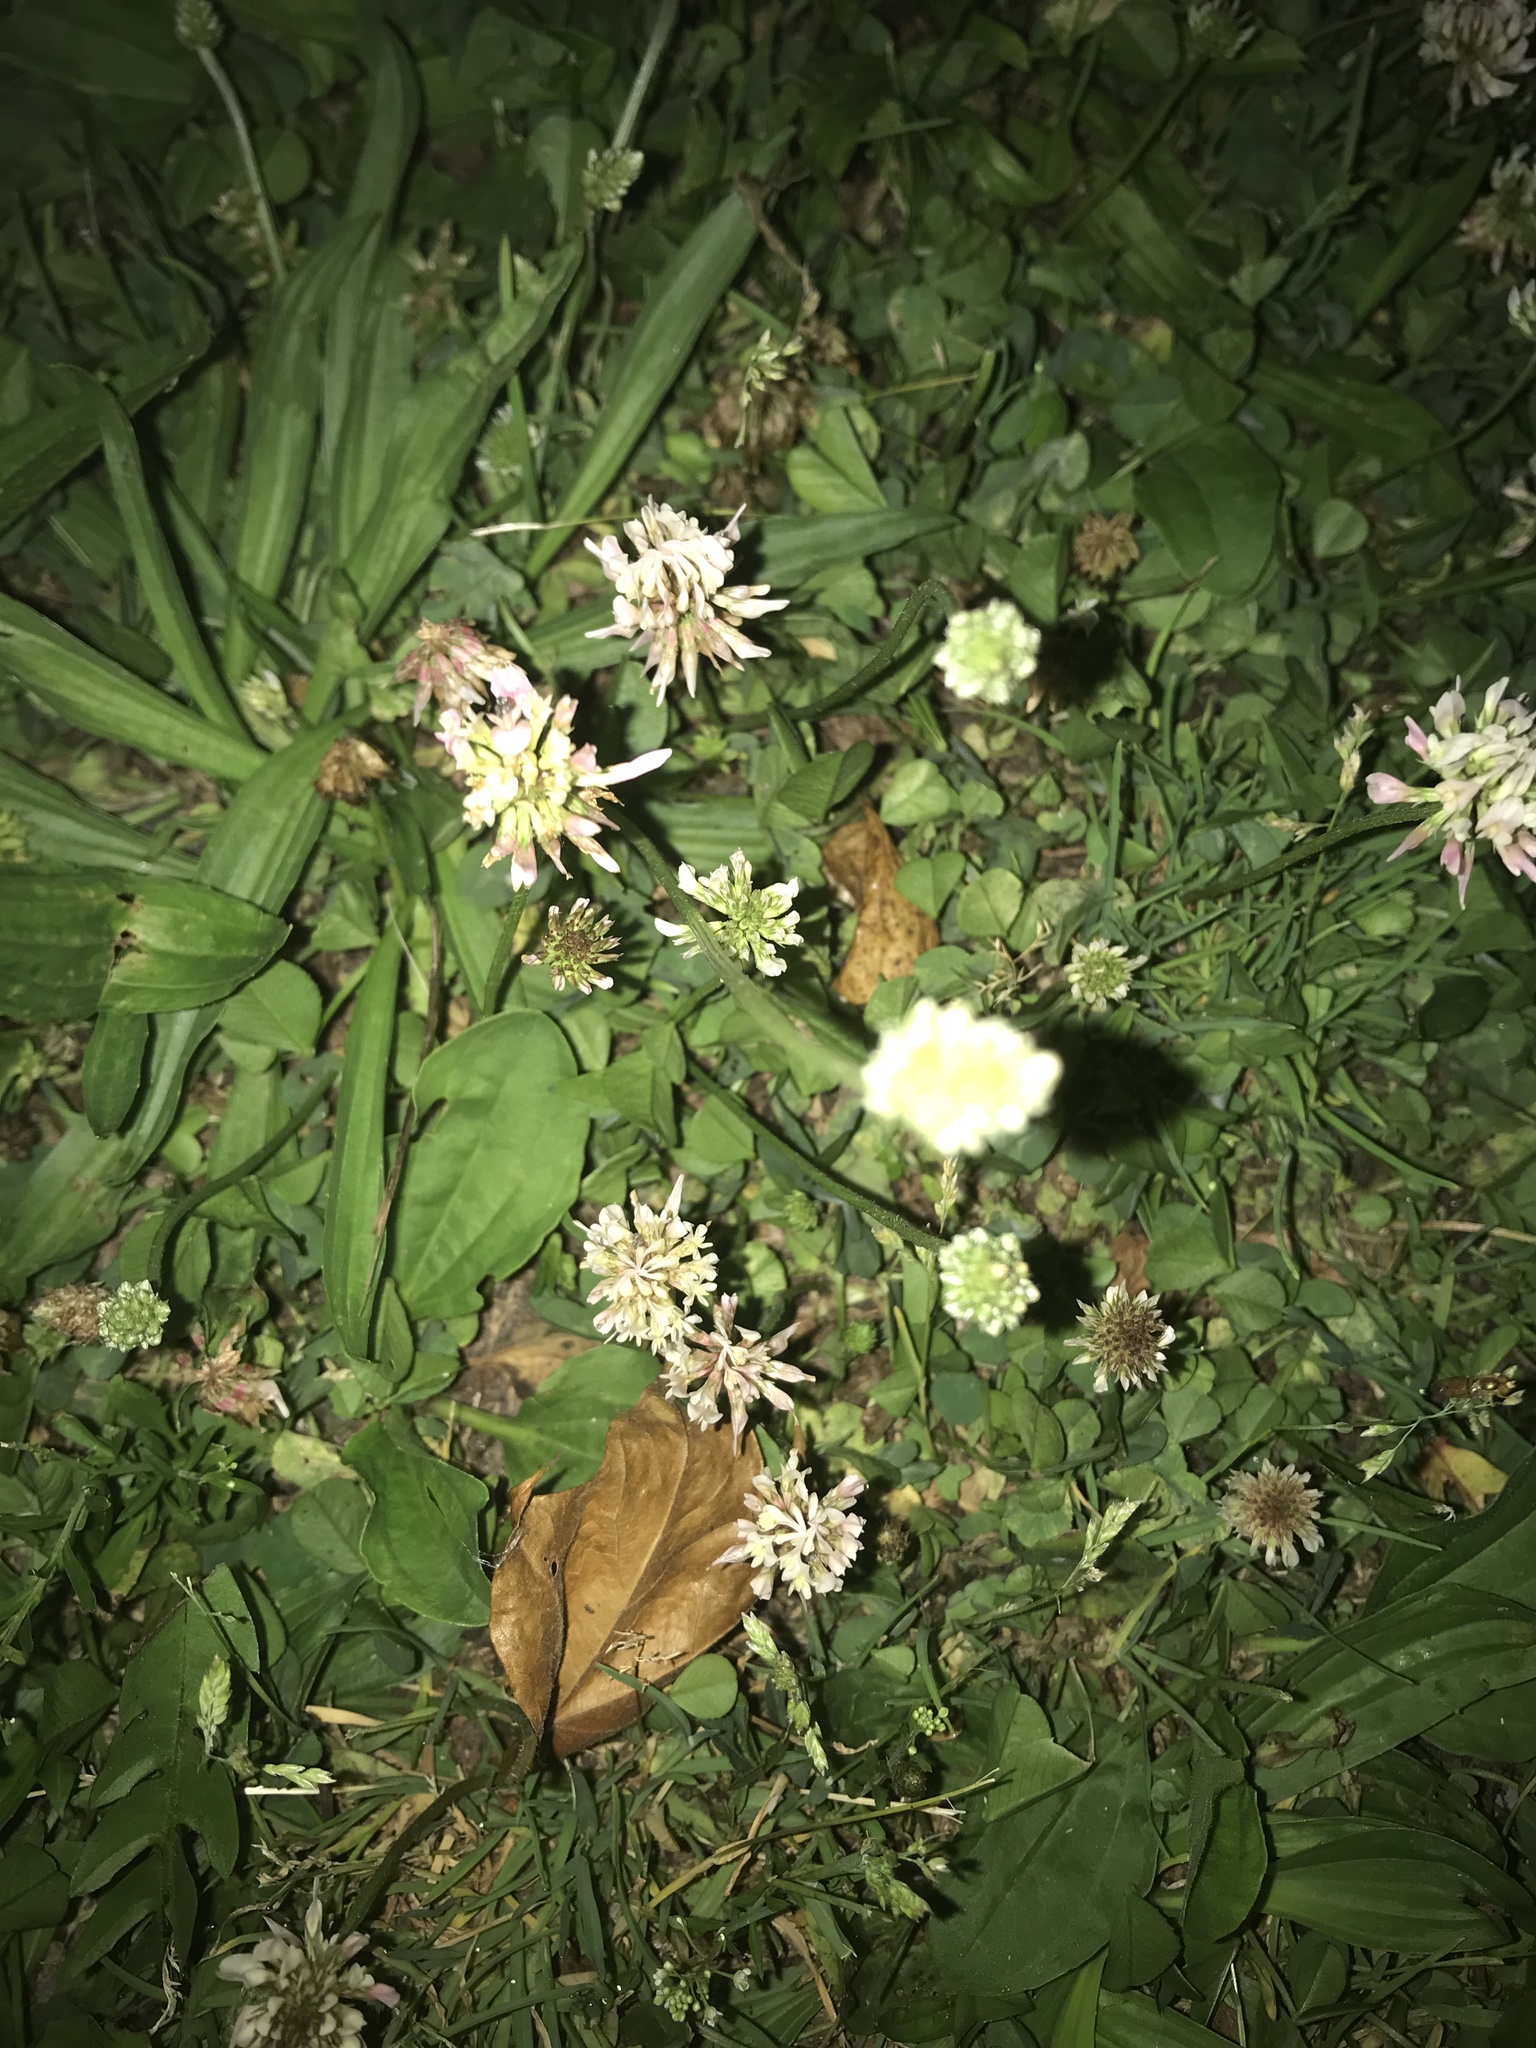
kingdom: Plantae
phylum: Tracheophyta
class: Magnoliopsida
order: Fabales
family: Fabaceae
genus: Trifolium
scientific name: Trifolium repens
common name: White clover
